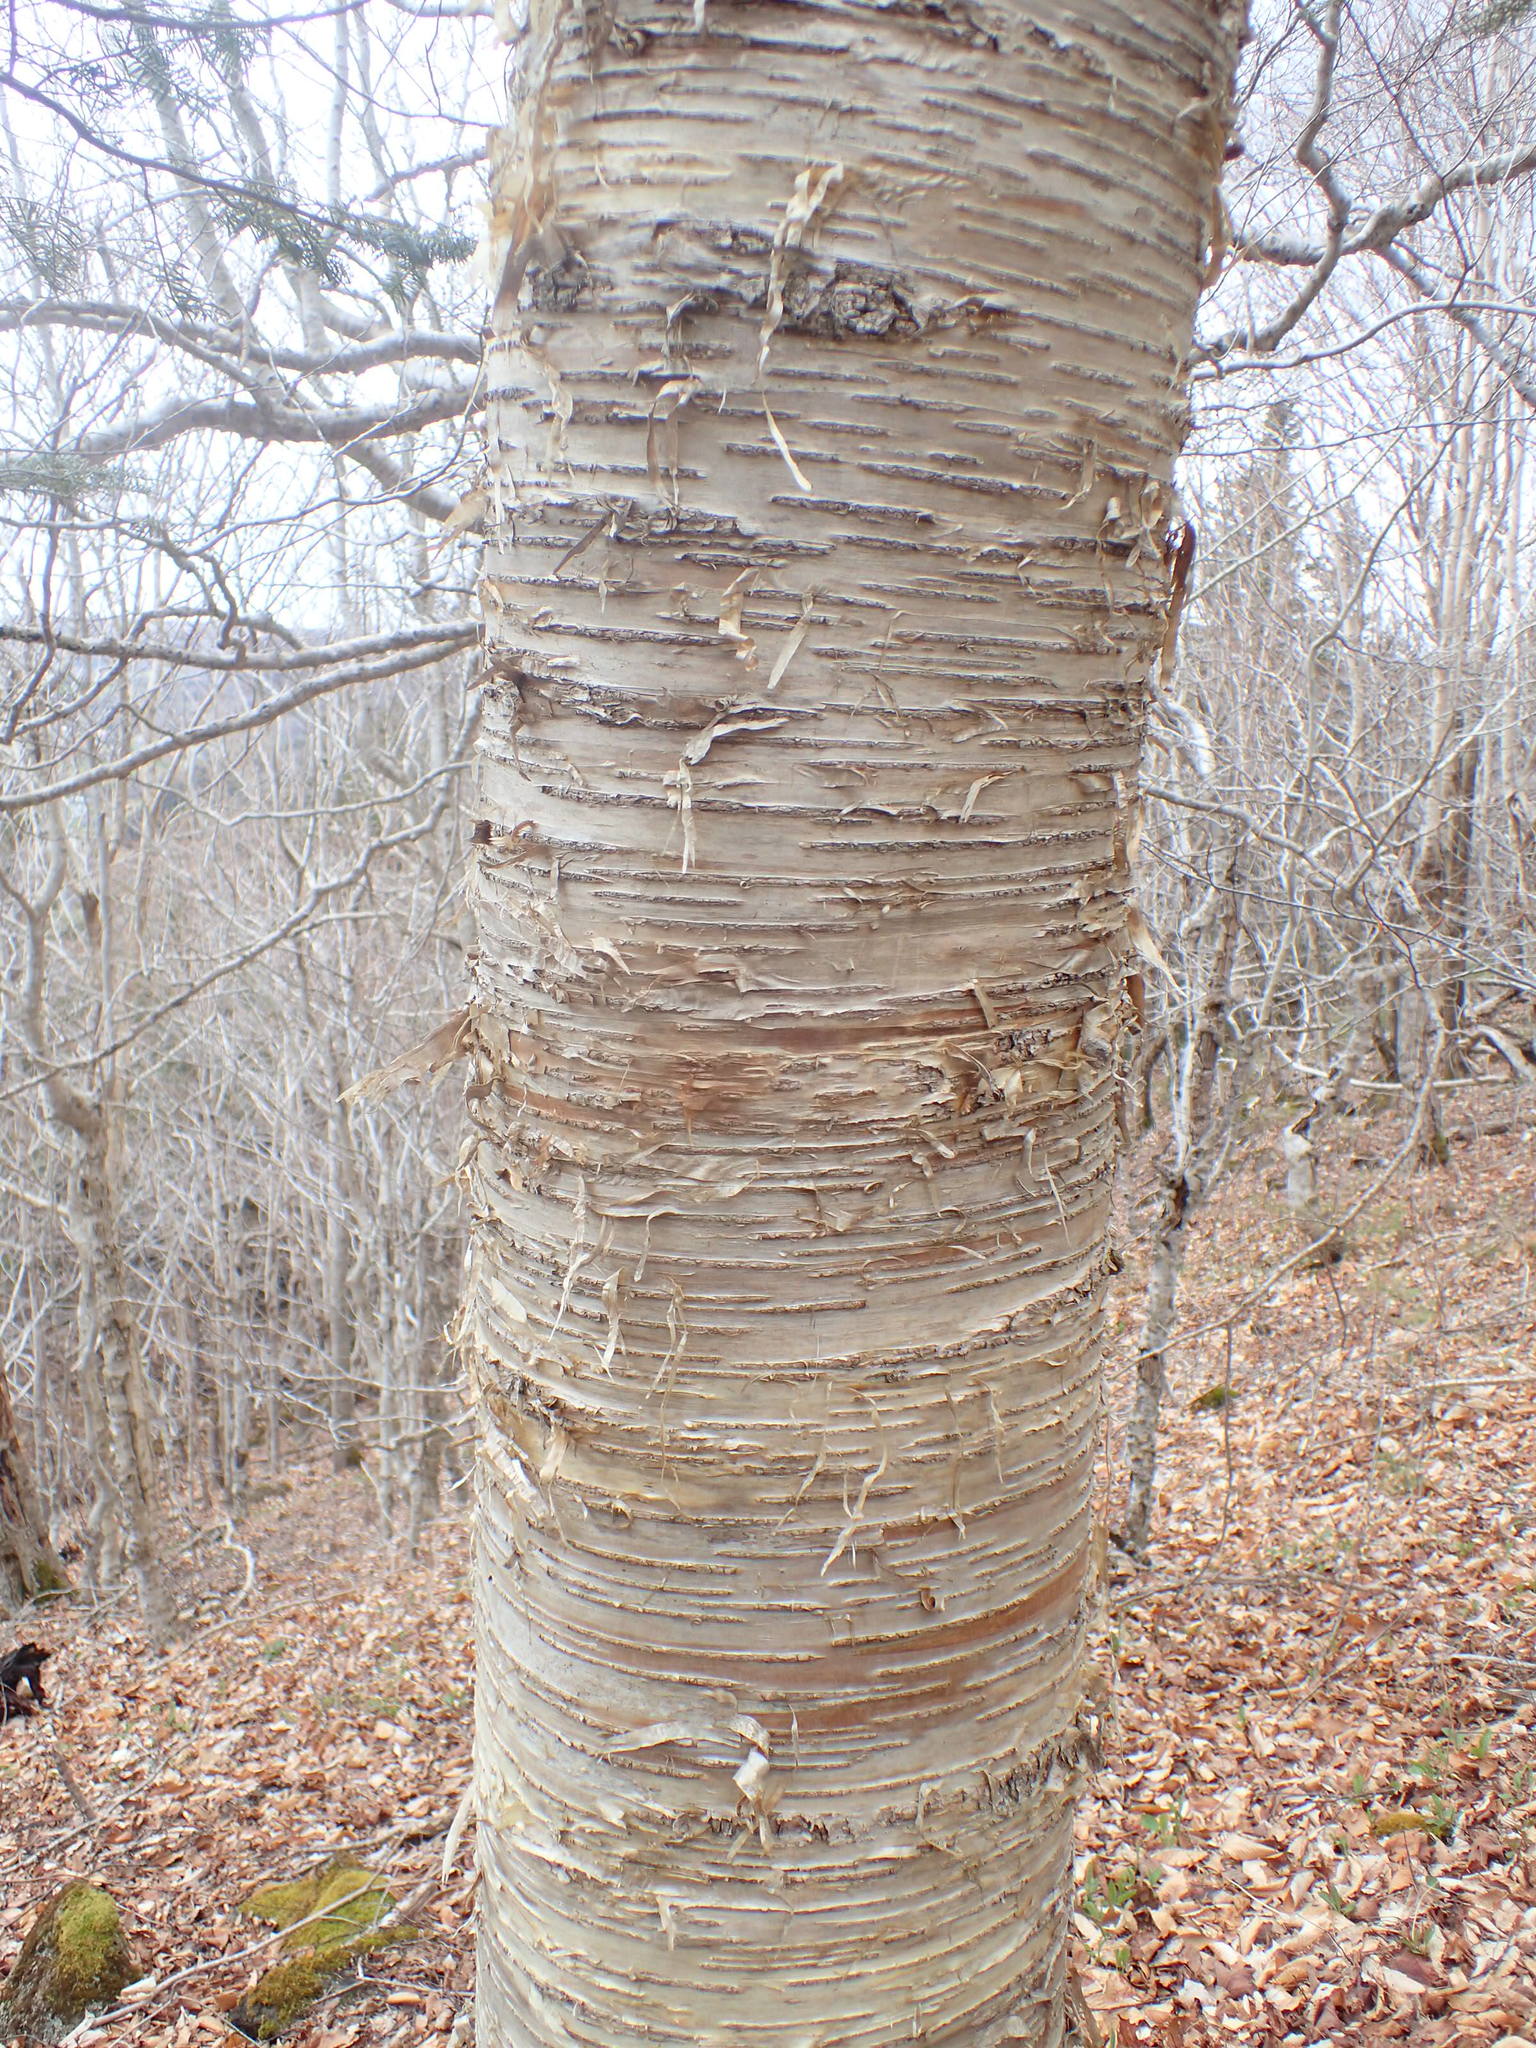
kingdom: Plantae
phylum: Tracheophyta
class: Magnoliopsida
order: Fagales
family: Betulaceae
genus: Betula
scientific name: Betula alleghaniensis
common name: Yellow birch
